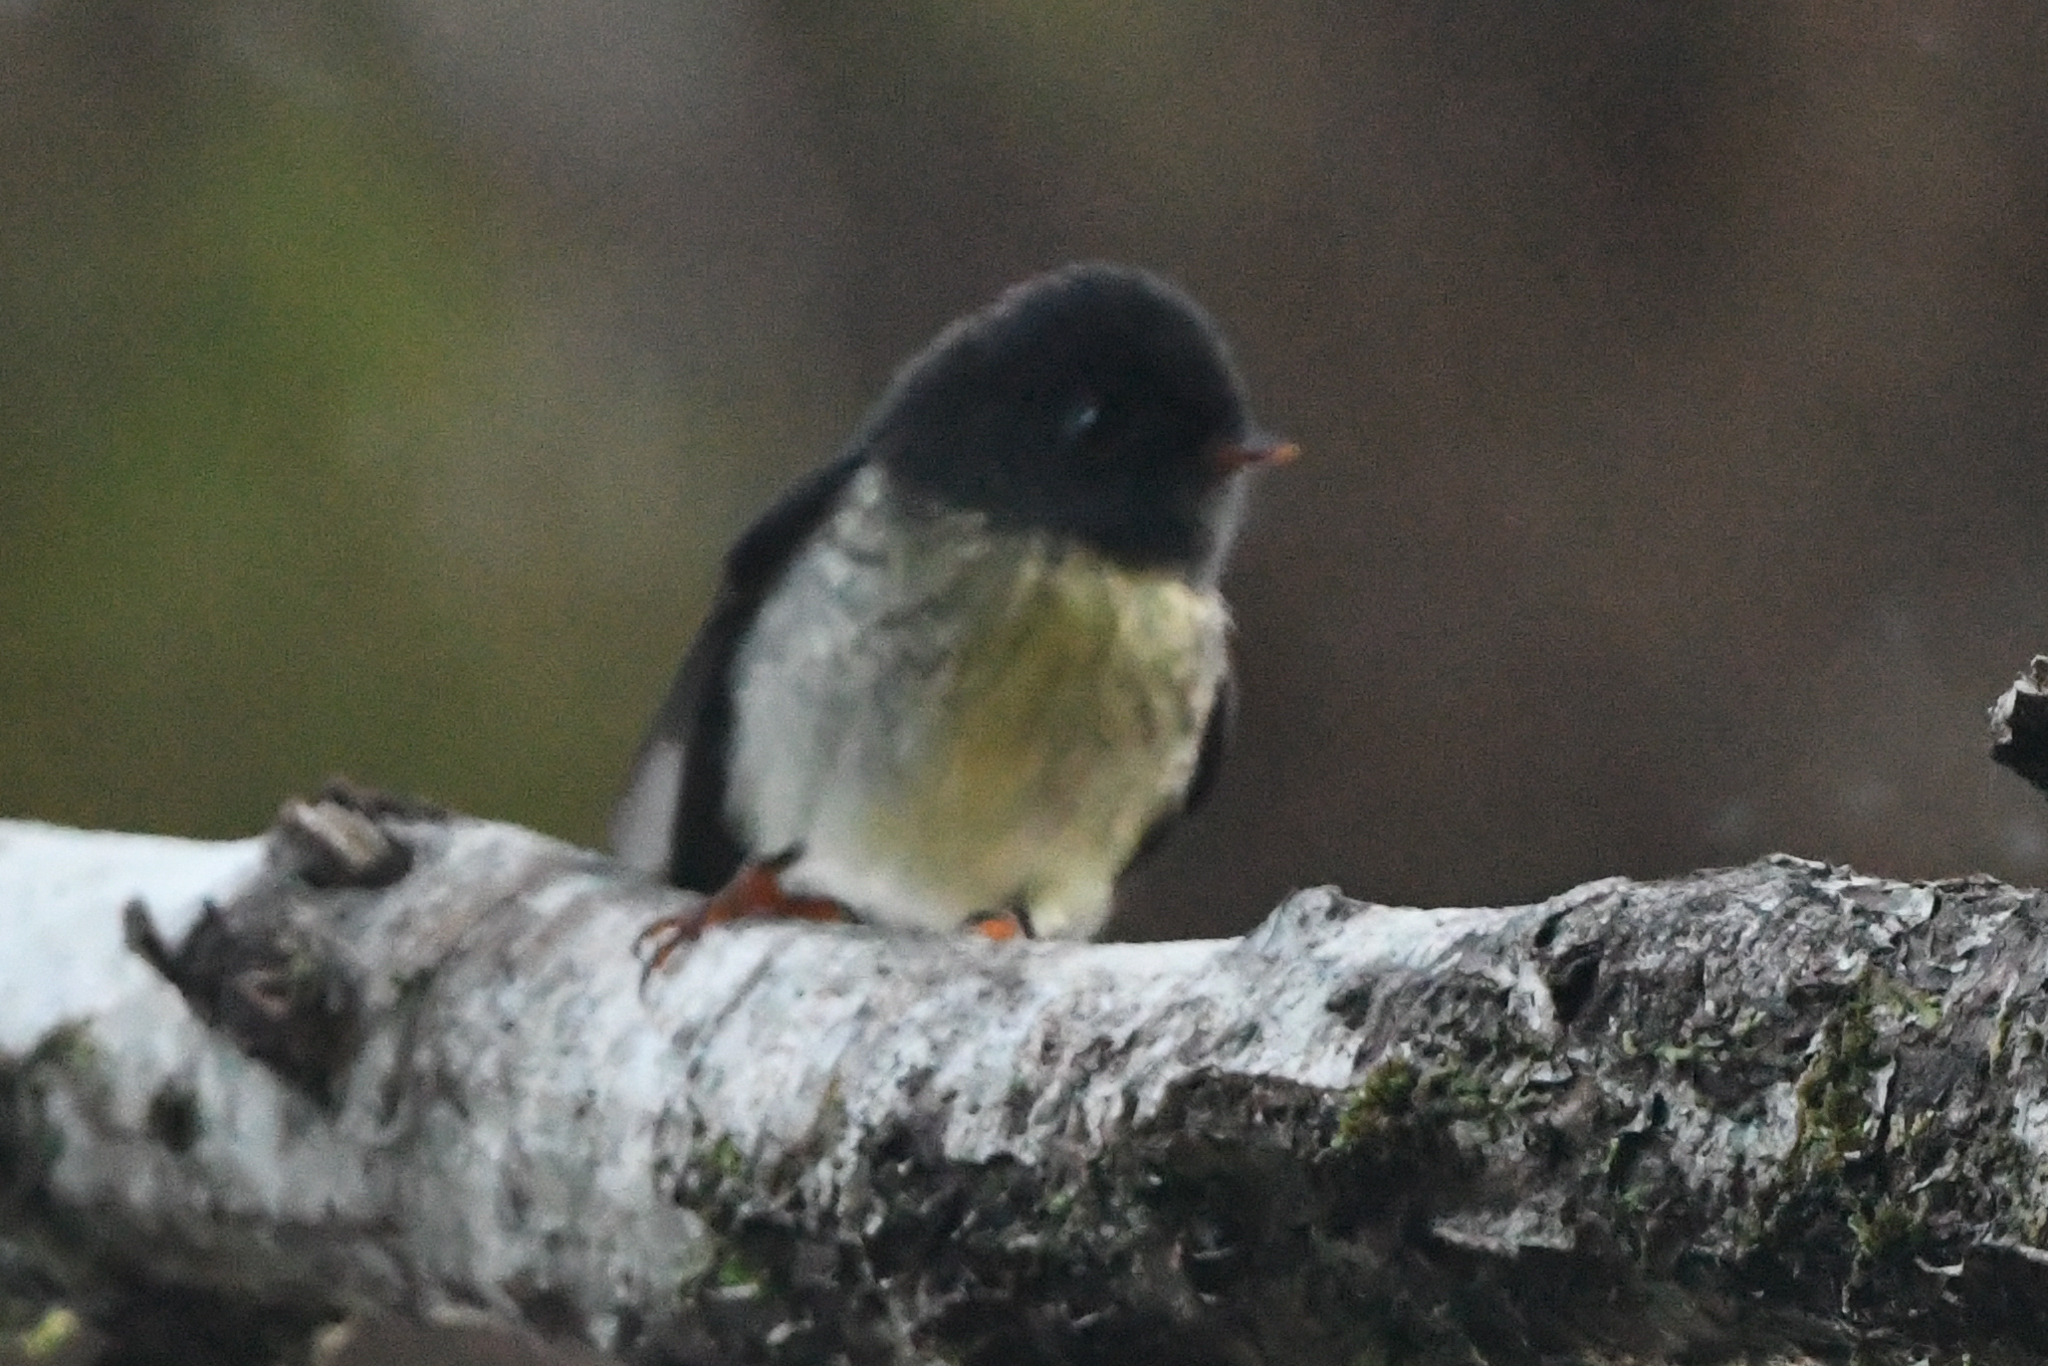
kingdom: Animalia
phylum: Chordata
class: Aves
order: Passeriformes
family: Petroicidae
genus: Petroica
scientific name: Petroica macrocephala
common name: Tomtit
